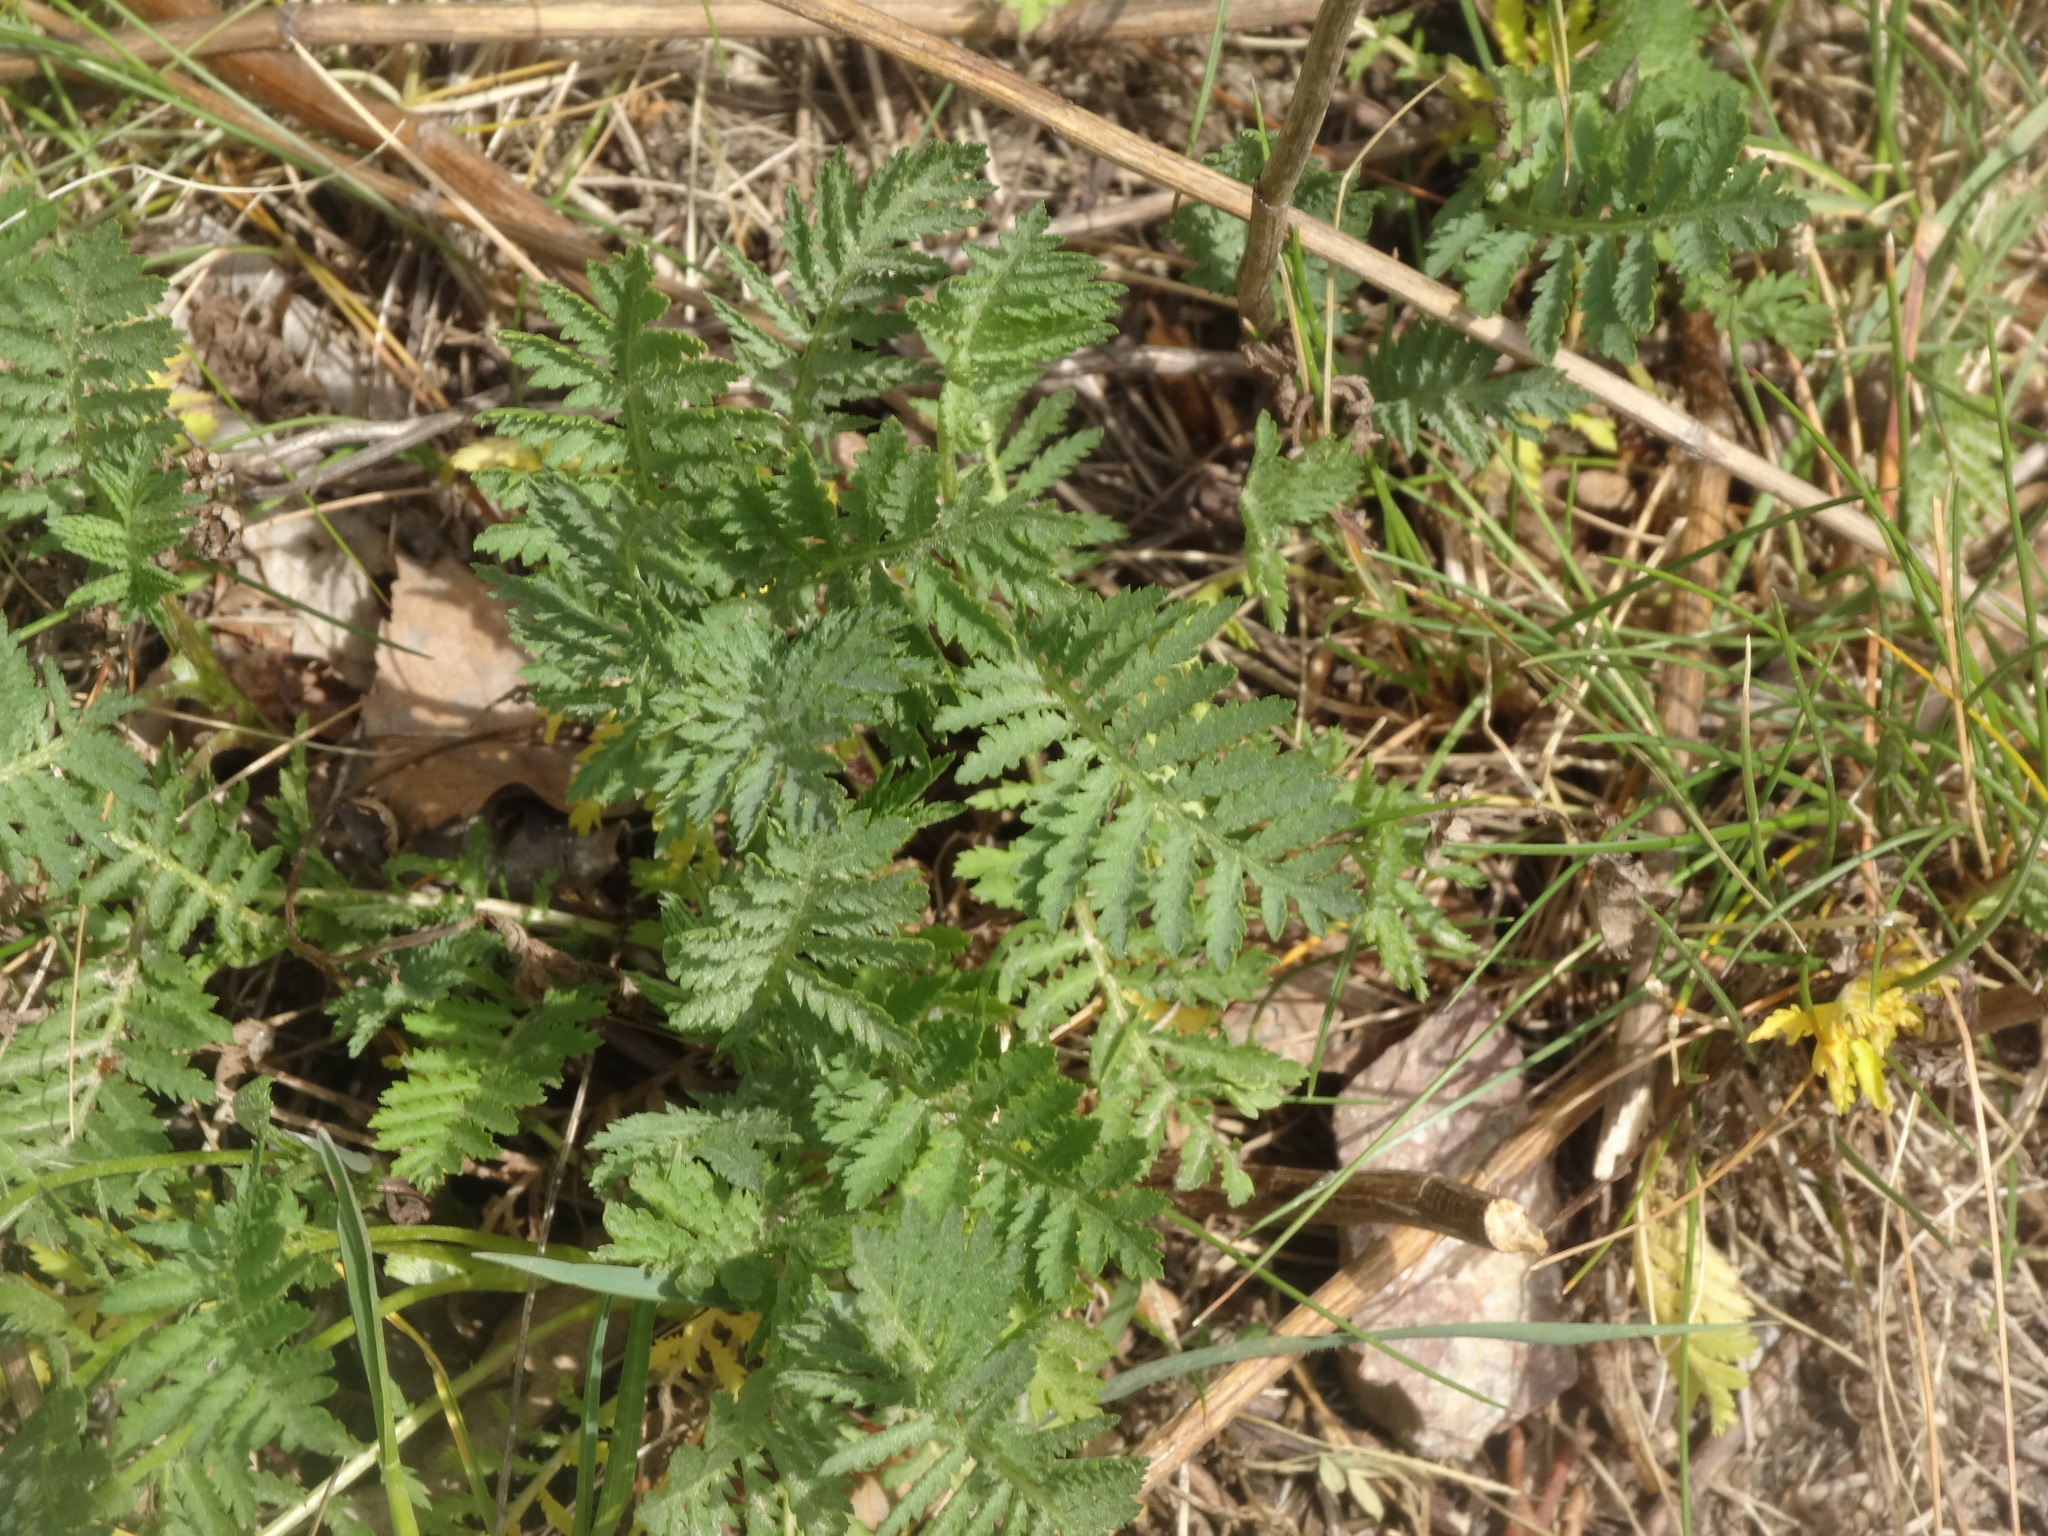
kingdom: Plantae
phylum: Tracheophyta
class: Magnoliopsida
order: Asterales
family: Asteraceae
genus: Tanacetum
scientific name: Tanacetum vulgare
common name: Common tansy
